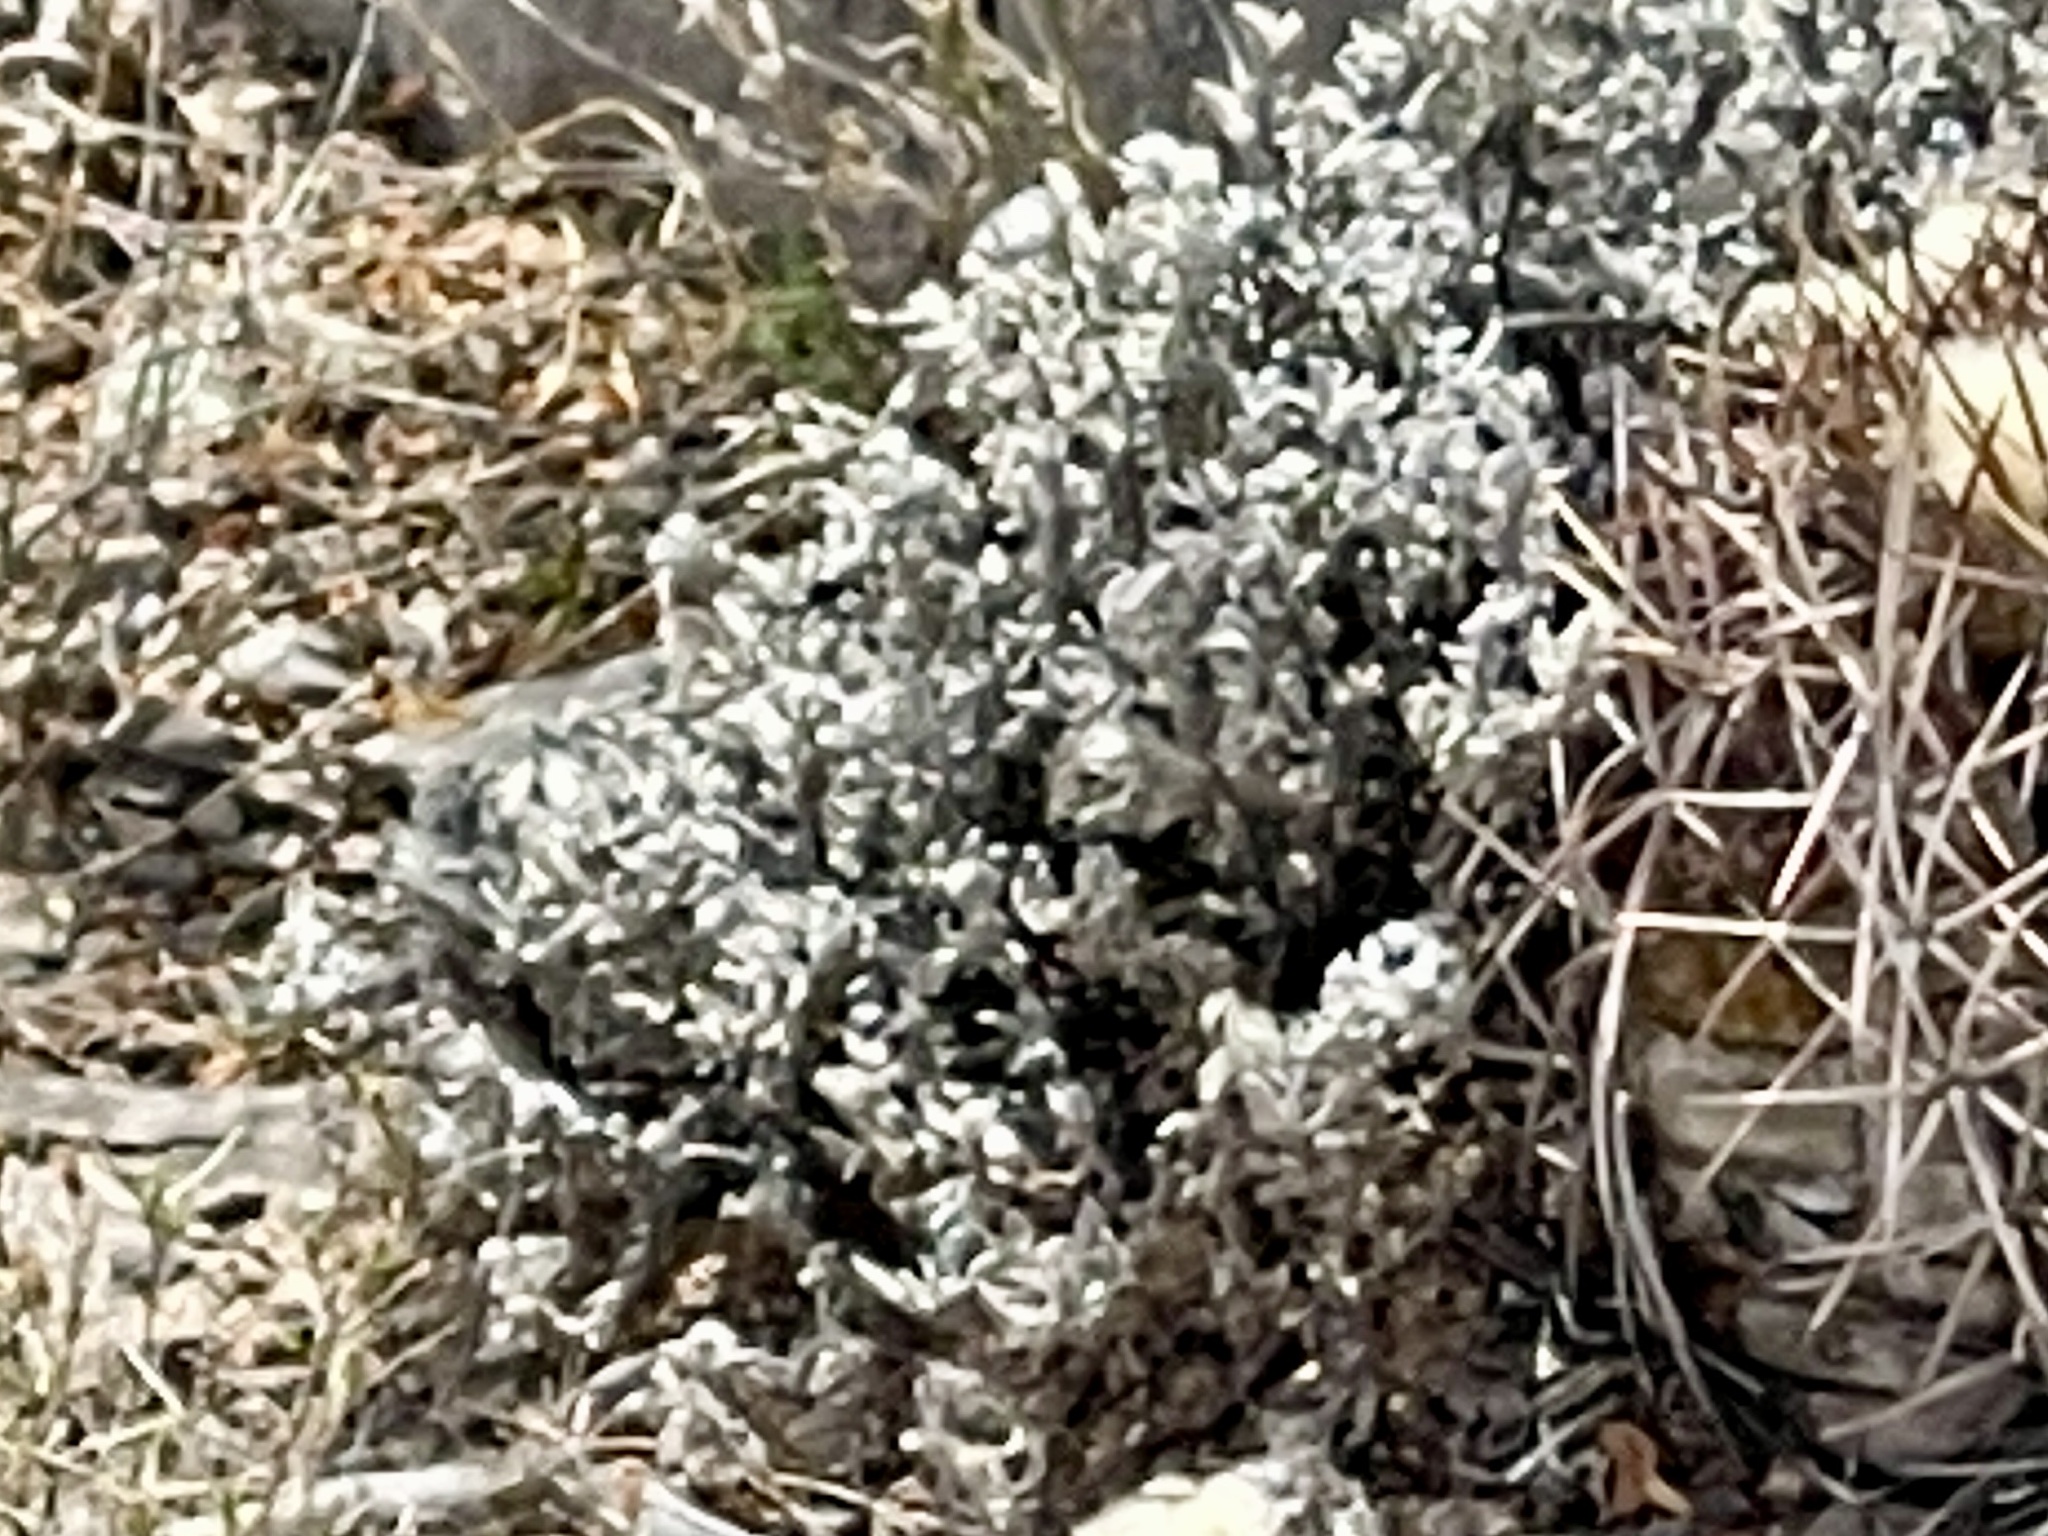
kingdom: Plantae
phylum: Tracheophyta
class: Magnoliopsida
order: Boraginales
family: Ehretiaceae
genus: Tiquilia
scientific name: Tiquilia canescens
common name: Hairy tiquilia
